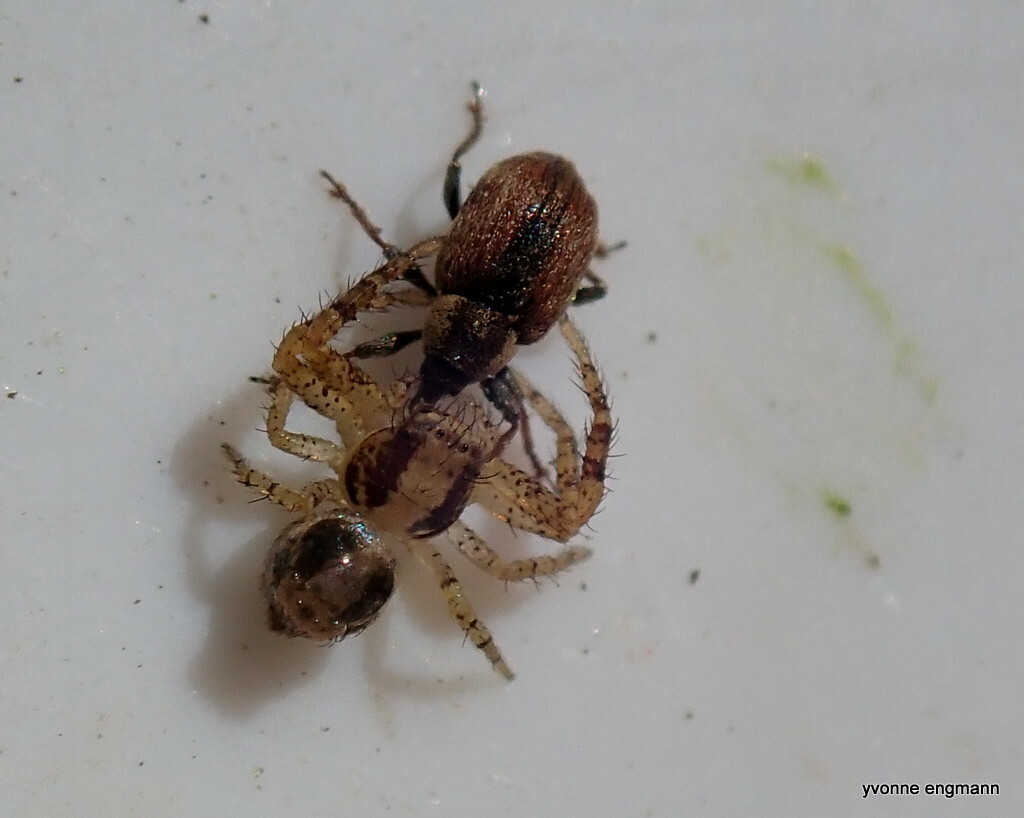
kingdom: Animalia
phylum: Arthropoda
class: Arachnida
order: Araneae
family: Thomisidae
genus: Xysticus
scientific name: Xysticus lanio
